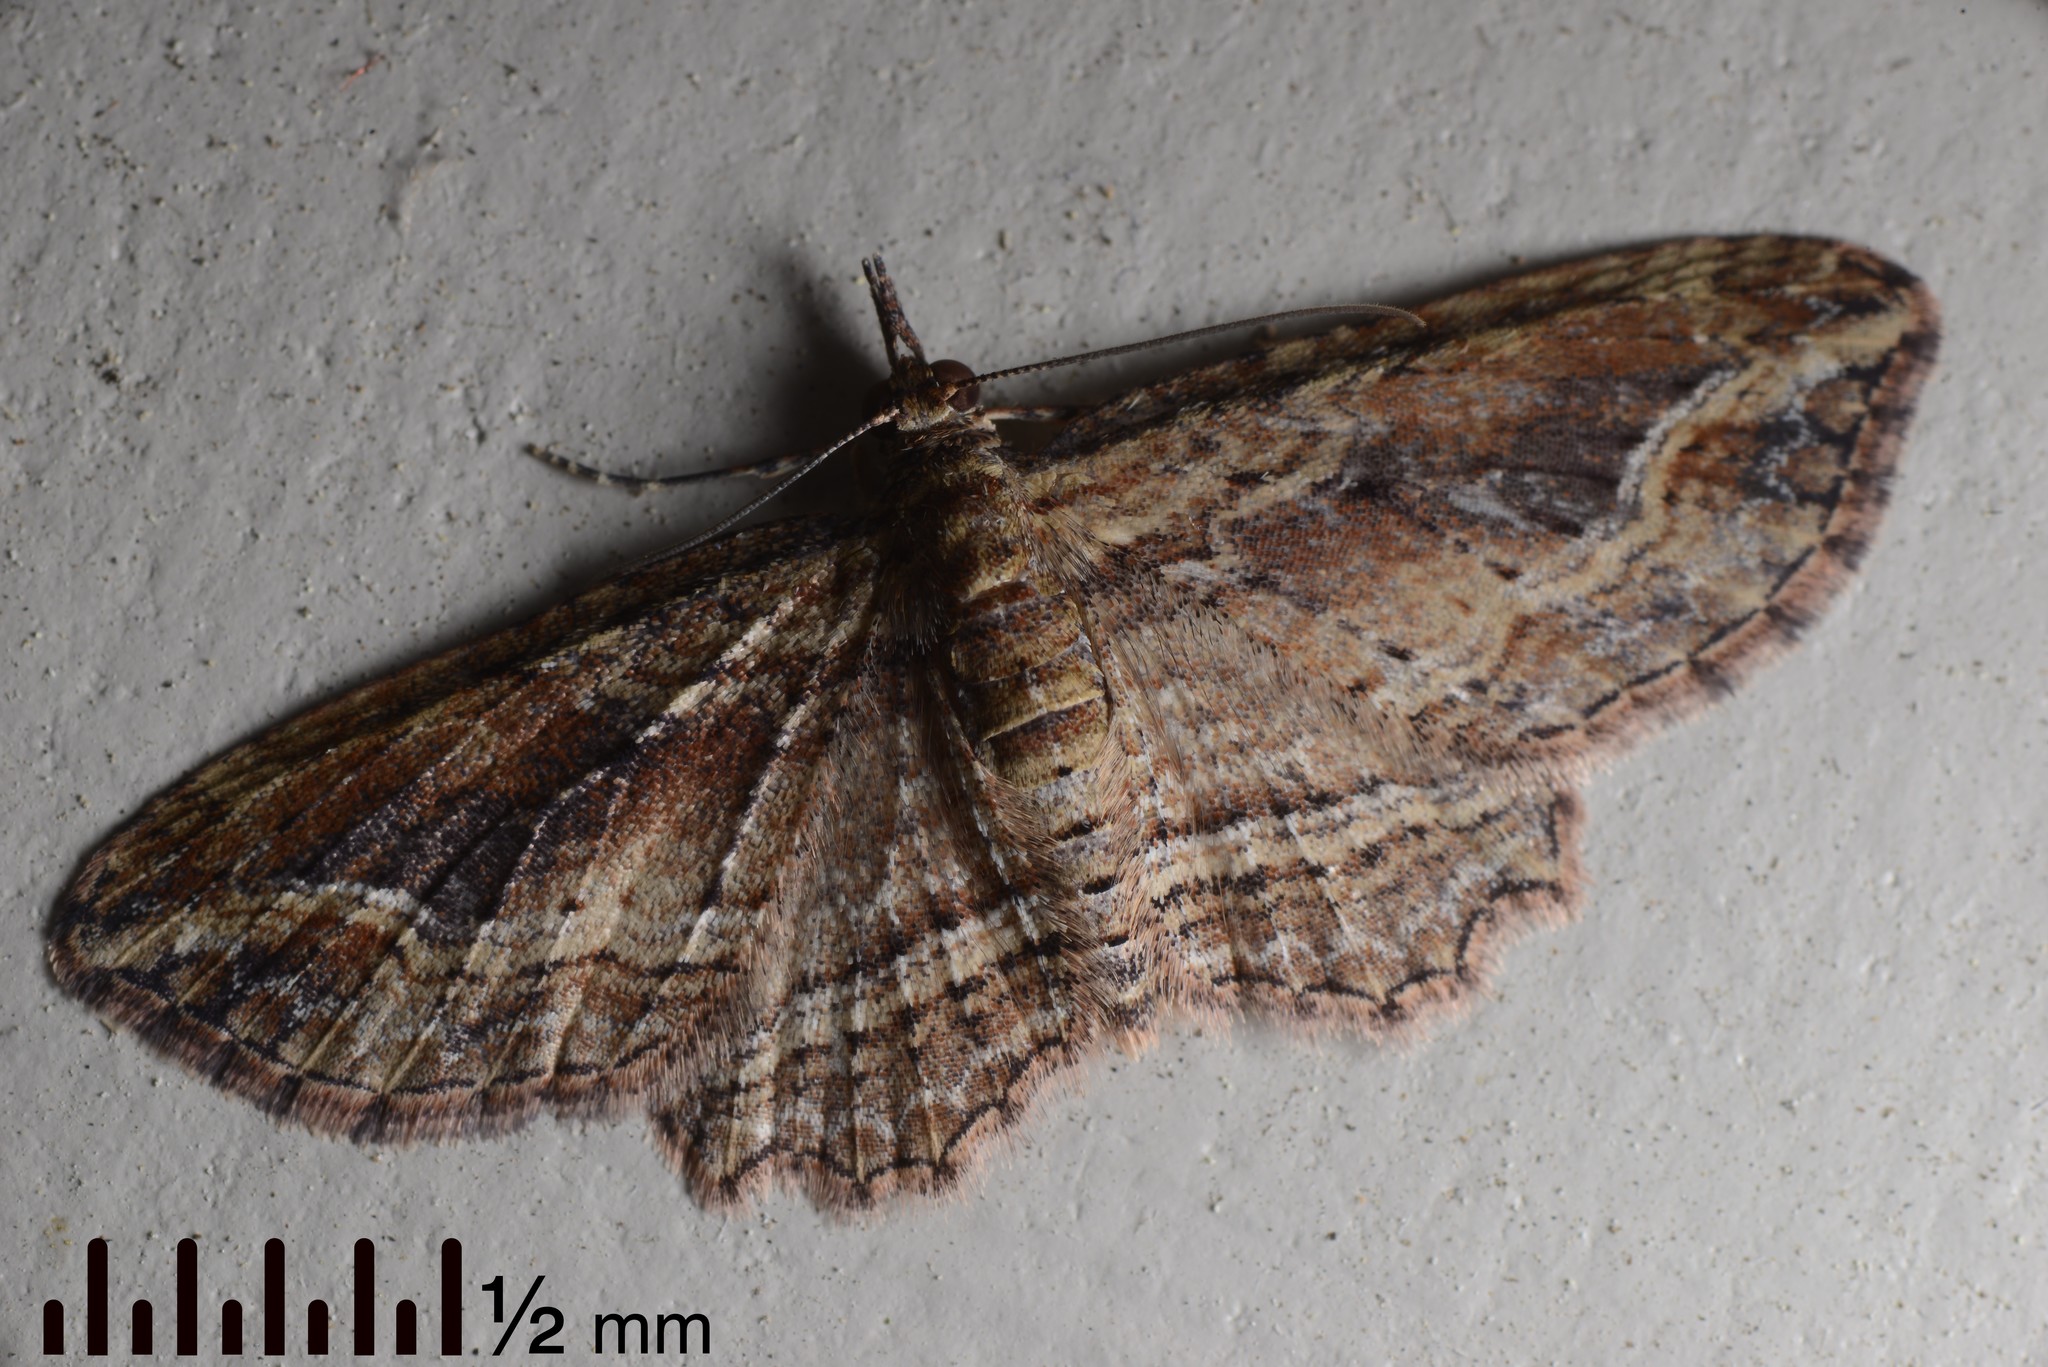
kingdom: Animalia
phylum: Arthropoda
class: Insecta
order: Lepidoptera
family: Geometridae
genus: Chloroclystis
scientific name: Chloroclystis filata
